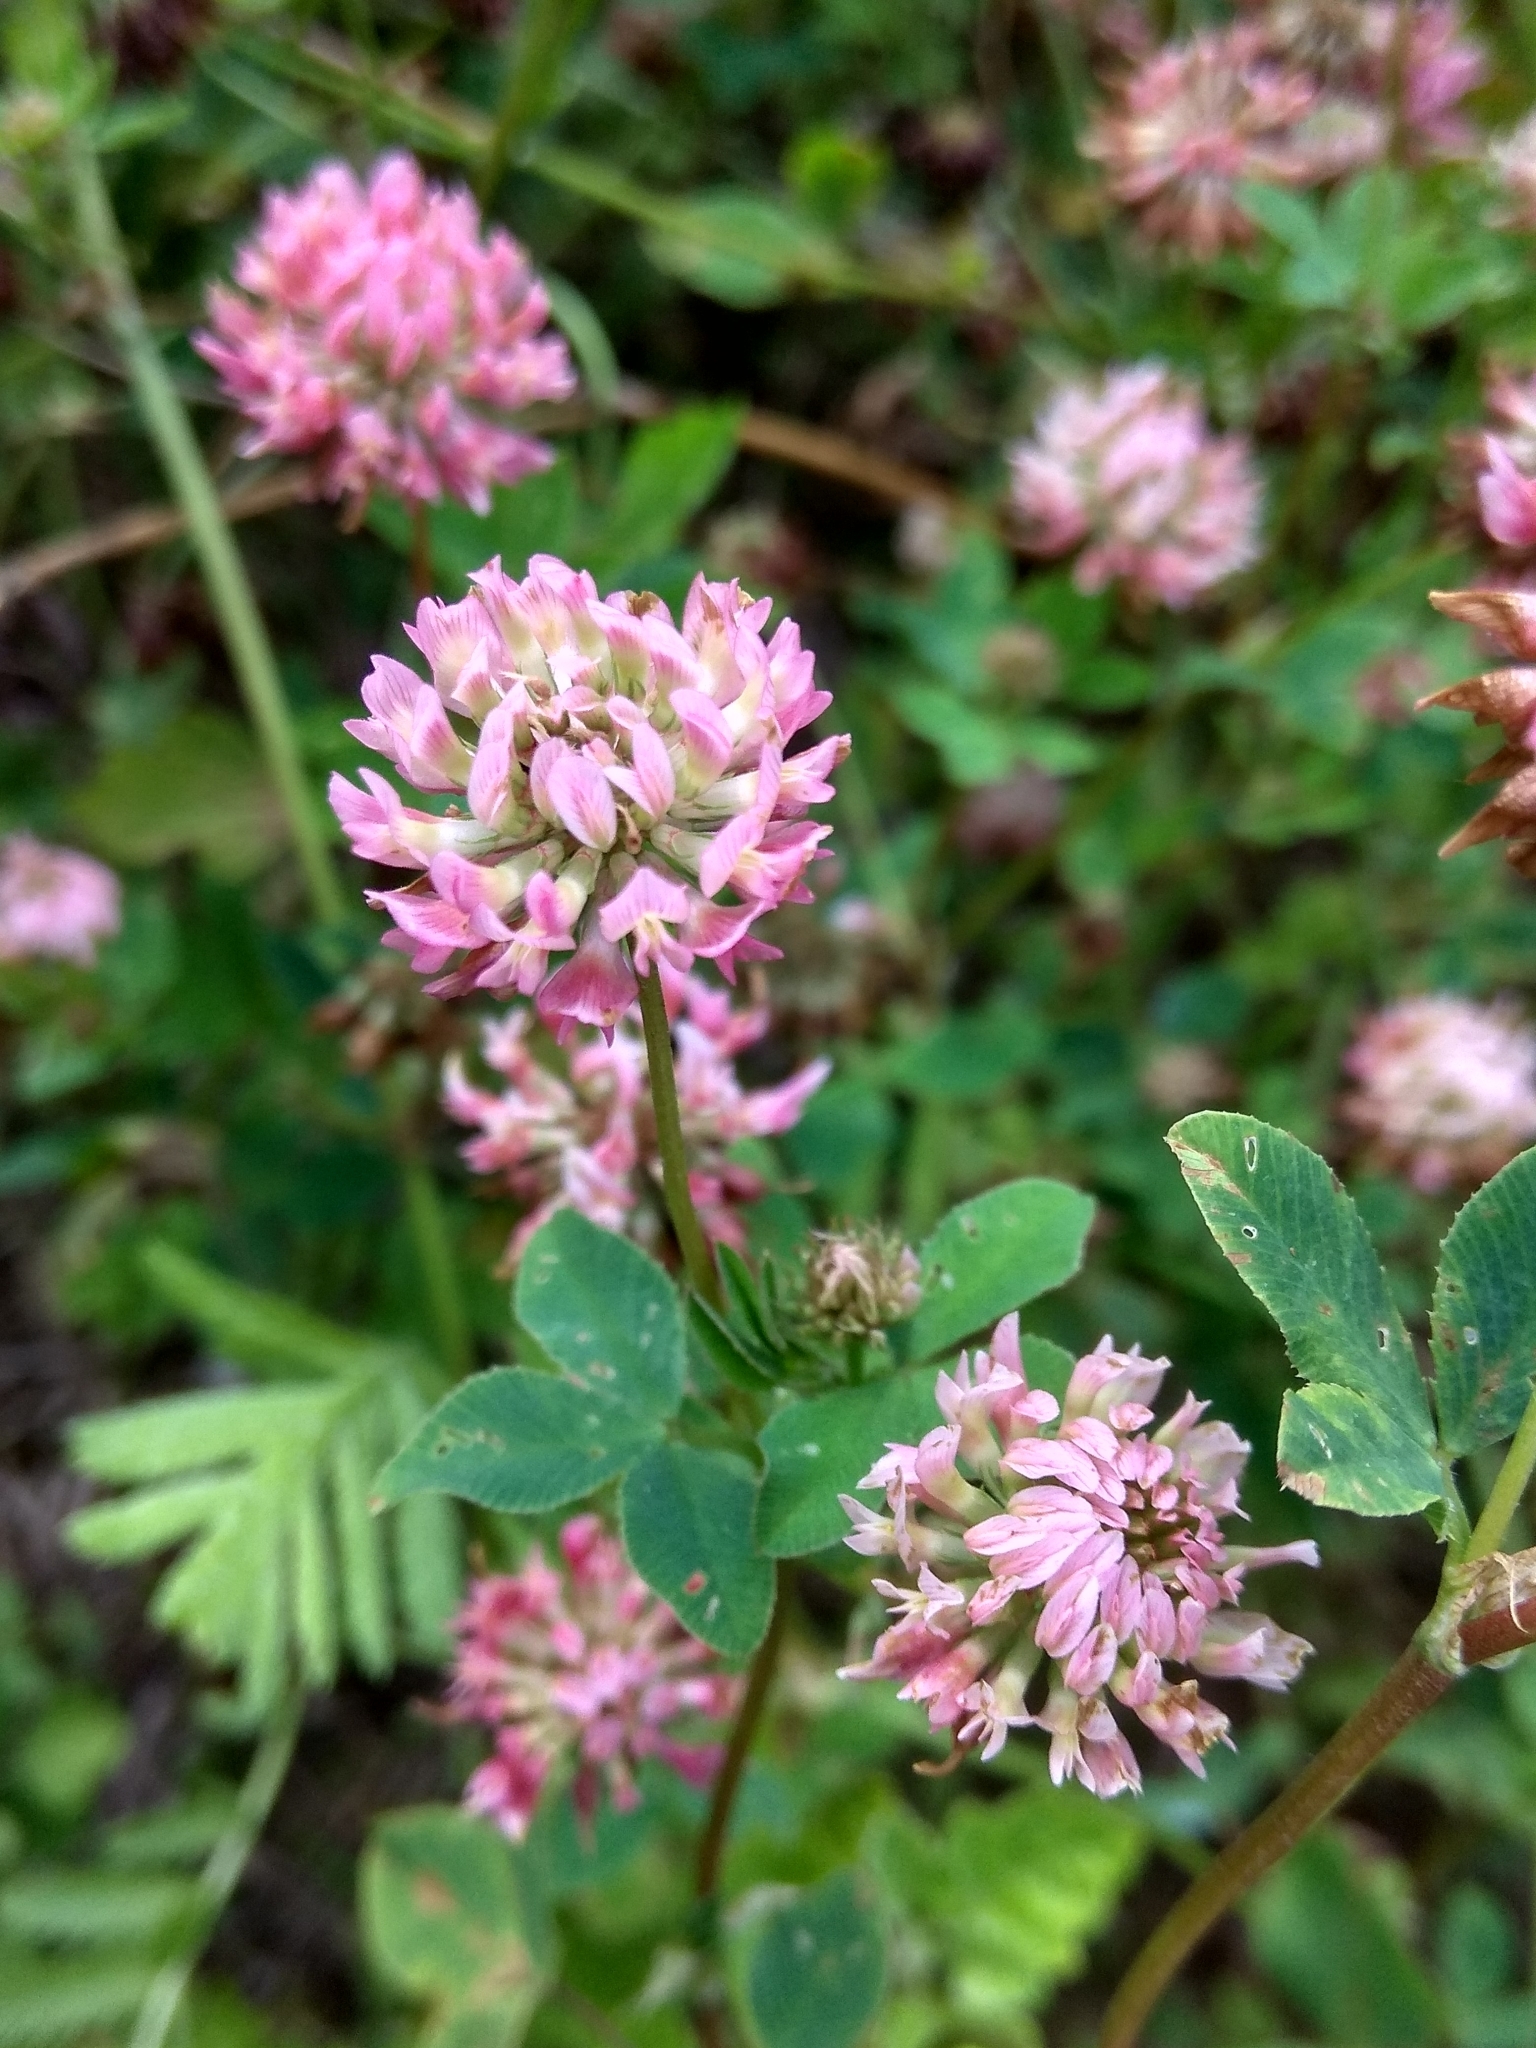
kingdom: Plantae
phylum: Tracheophyta
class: Magnoliopsida
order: Fabales
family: Fabaceae
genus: Trifolium
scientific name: Trifolium hybridum
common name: Alsike clover
